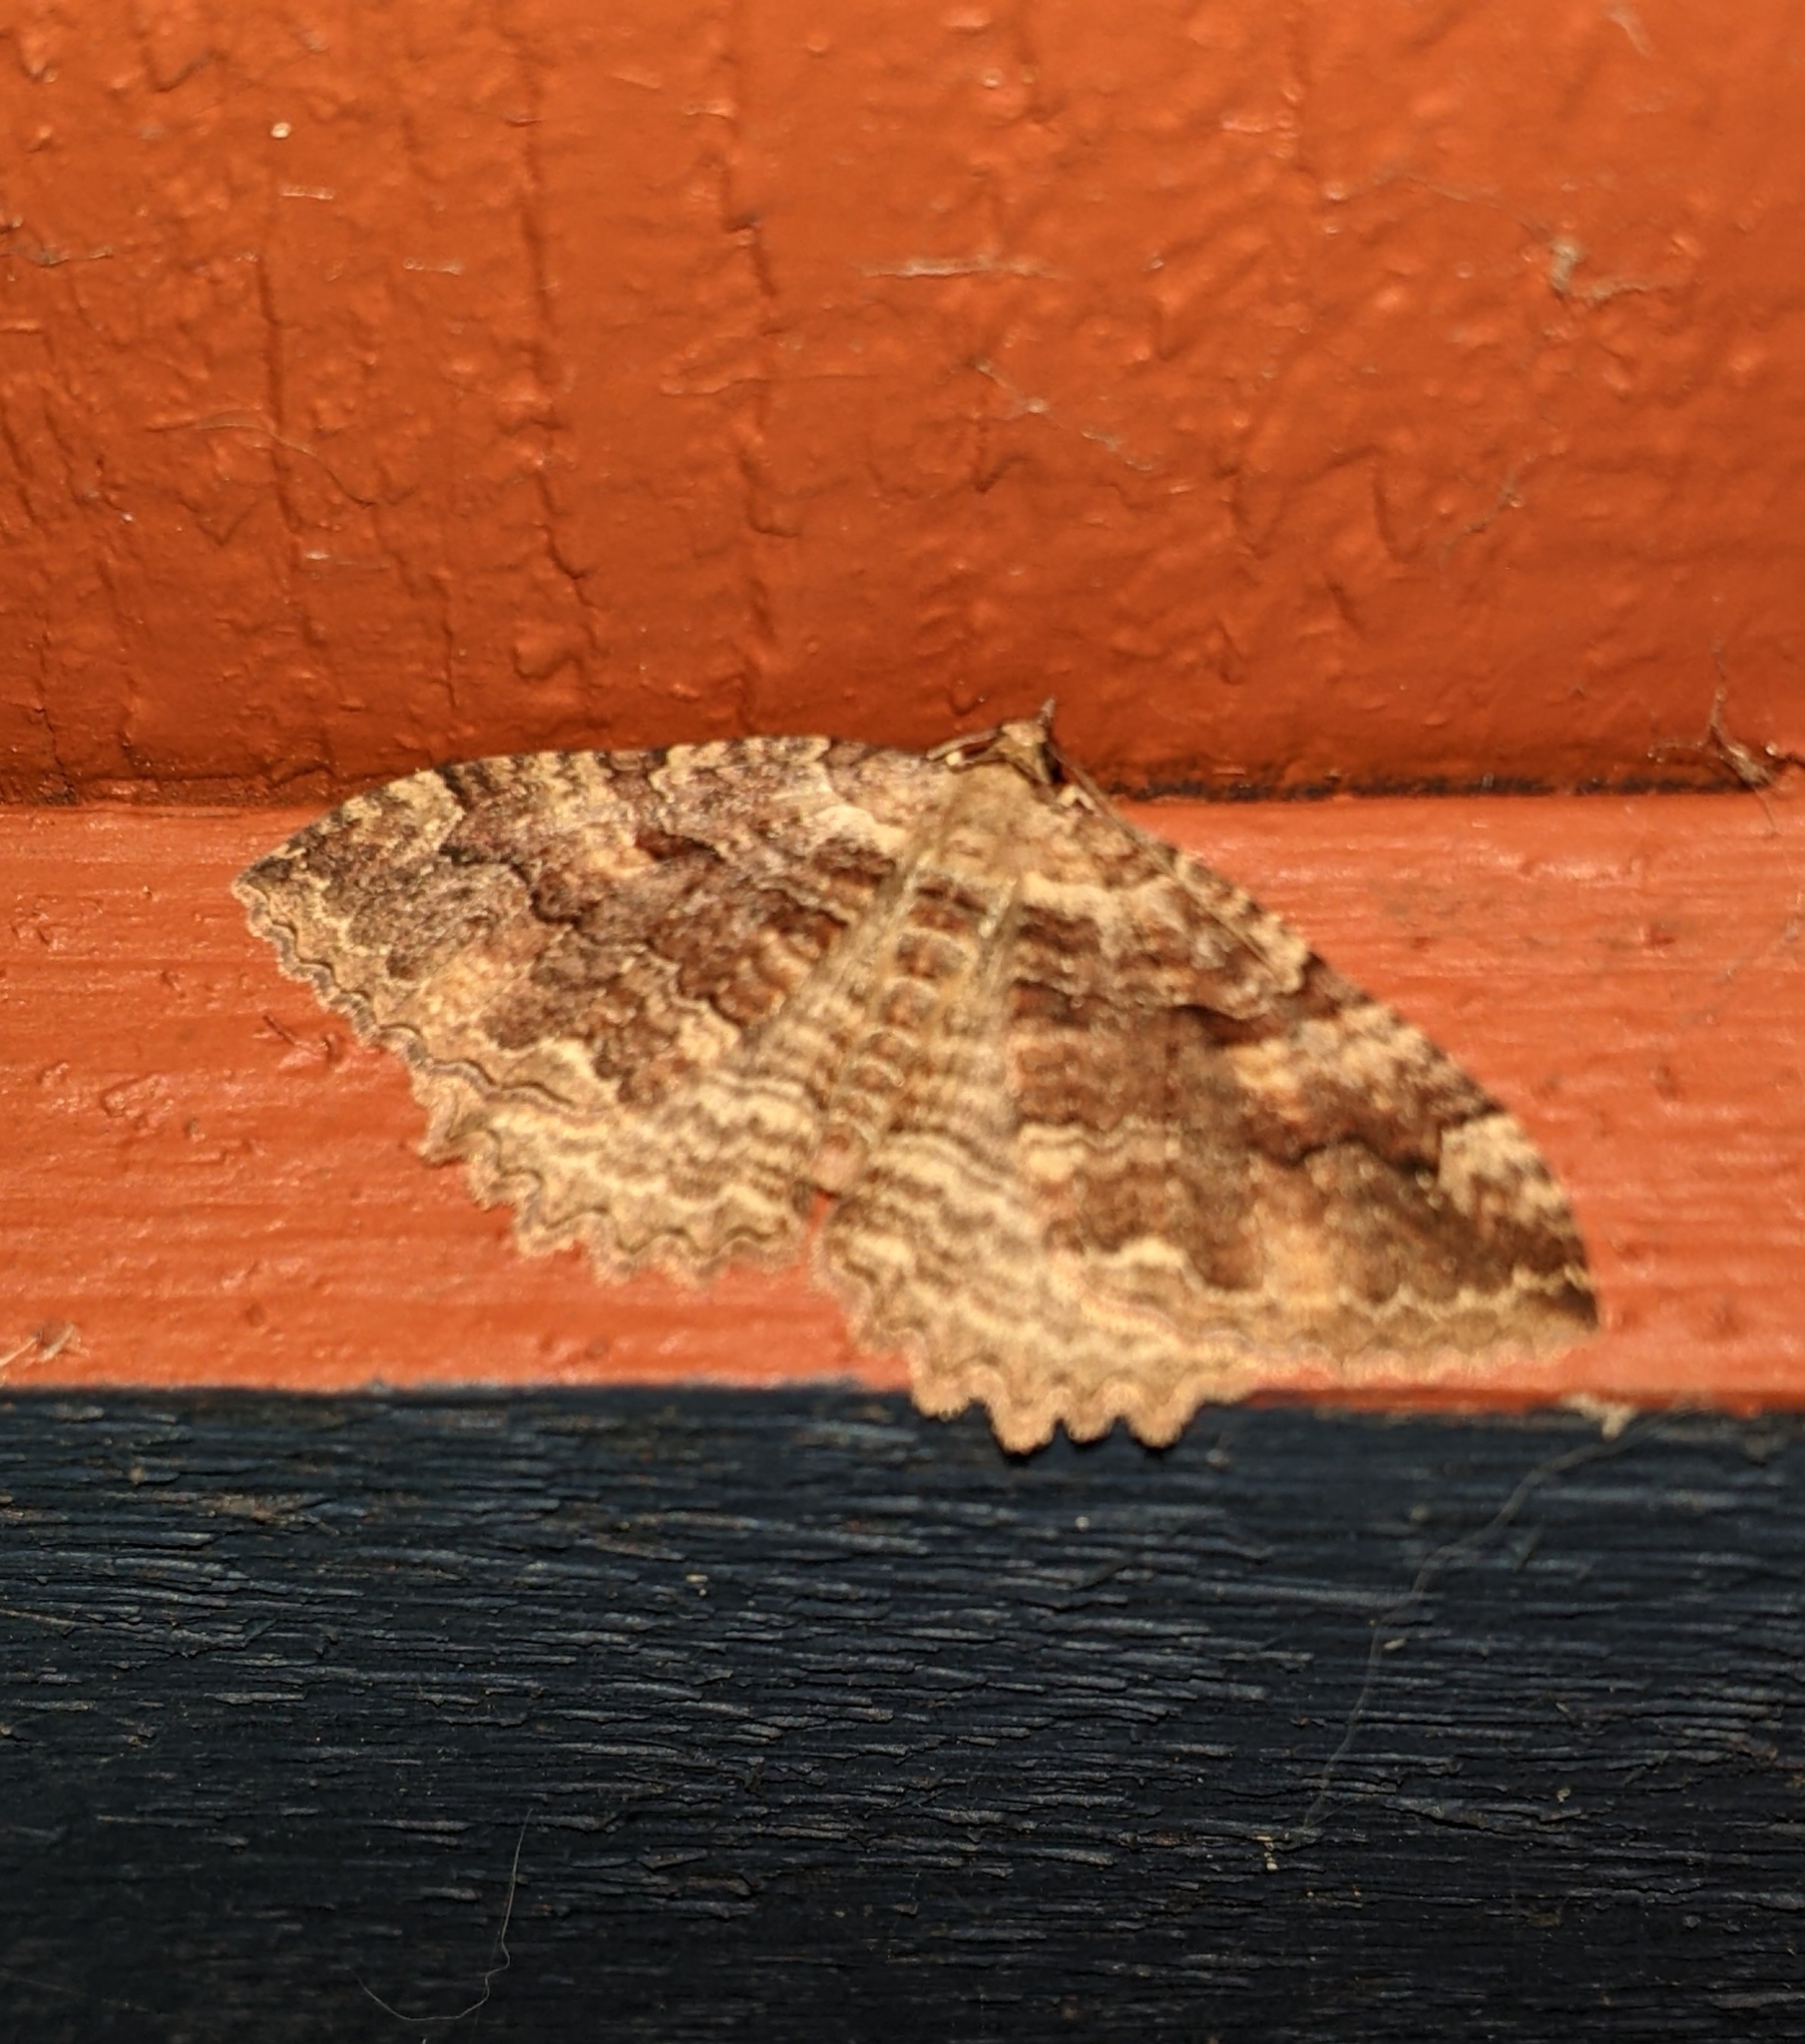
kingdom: Animalia
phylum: Arthropoda
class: Insecta
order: Lepidoptera
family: Geometridae
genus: Triphosa
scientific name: Triphosa haesitata
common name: Tissue moth
